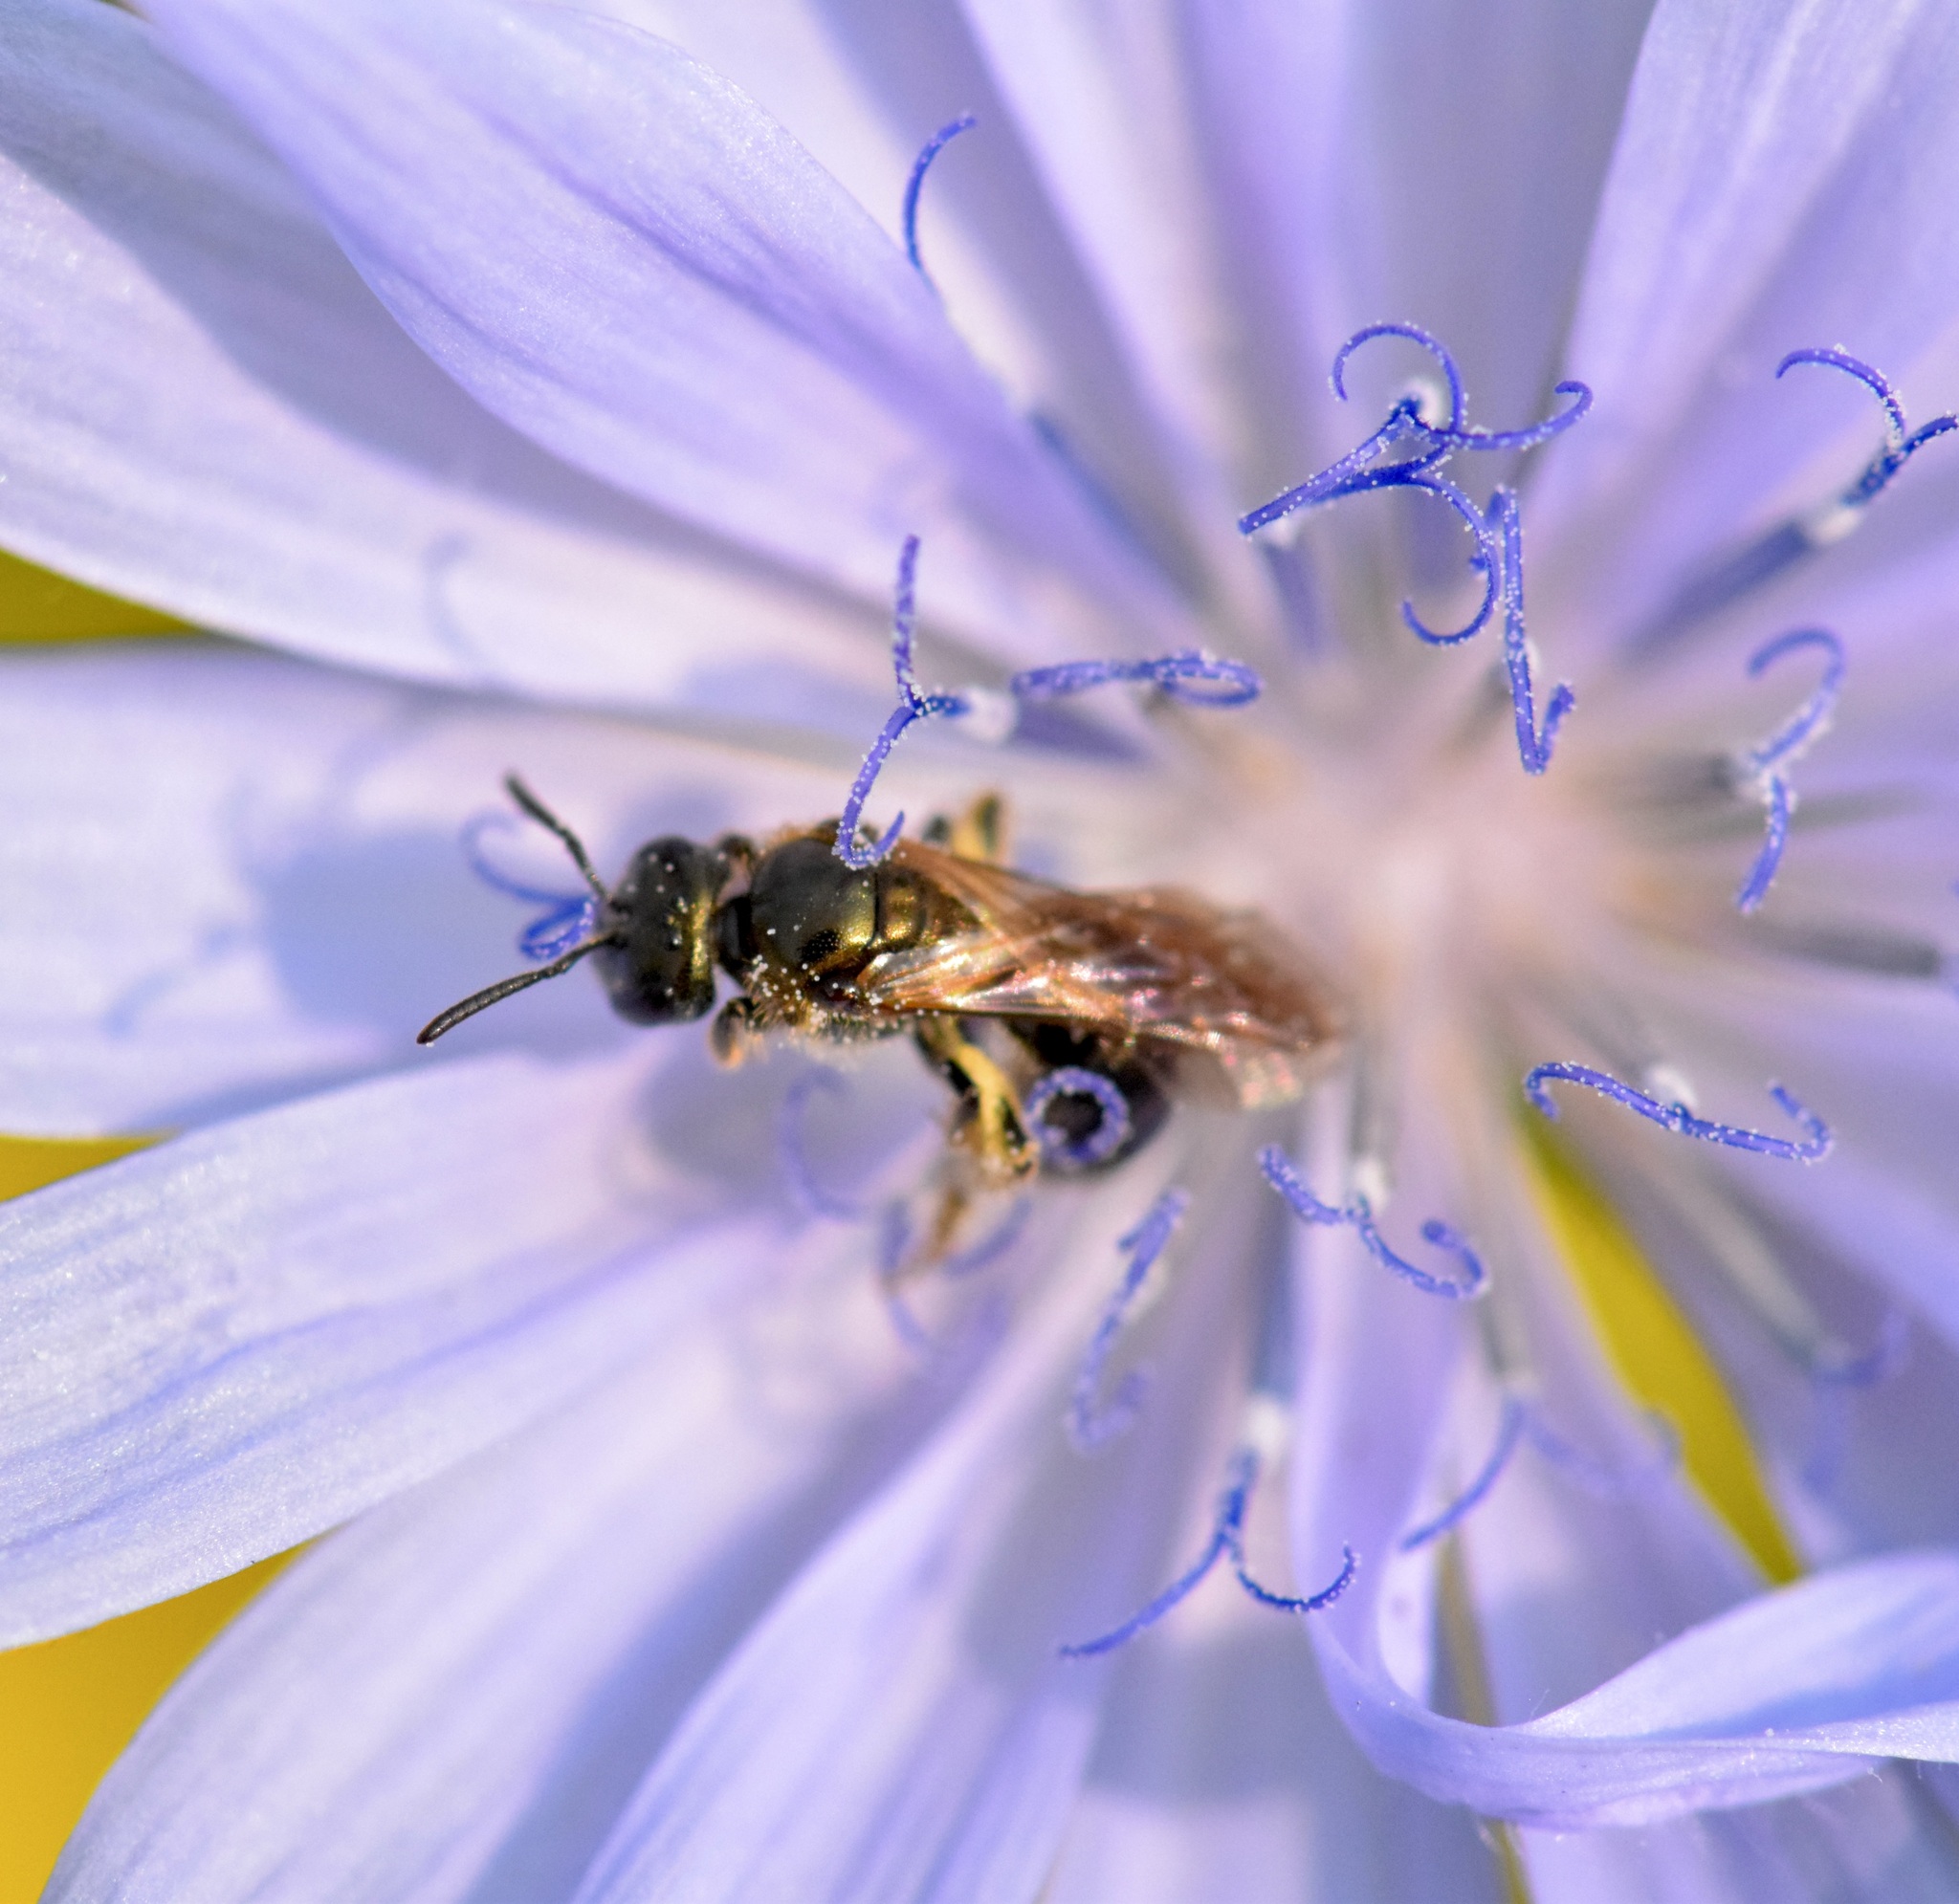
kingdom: Animalia
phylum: Arthropoda
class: Insecta
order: Hymenoptera
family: Halictidae
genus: Lasioglossum
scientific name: Lasioglossum nigroviride
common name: Black-and-green dialictus sweat bee
